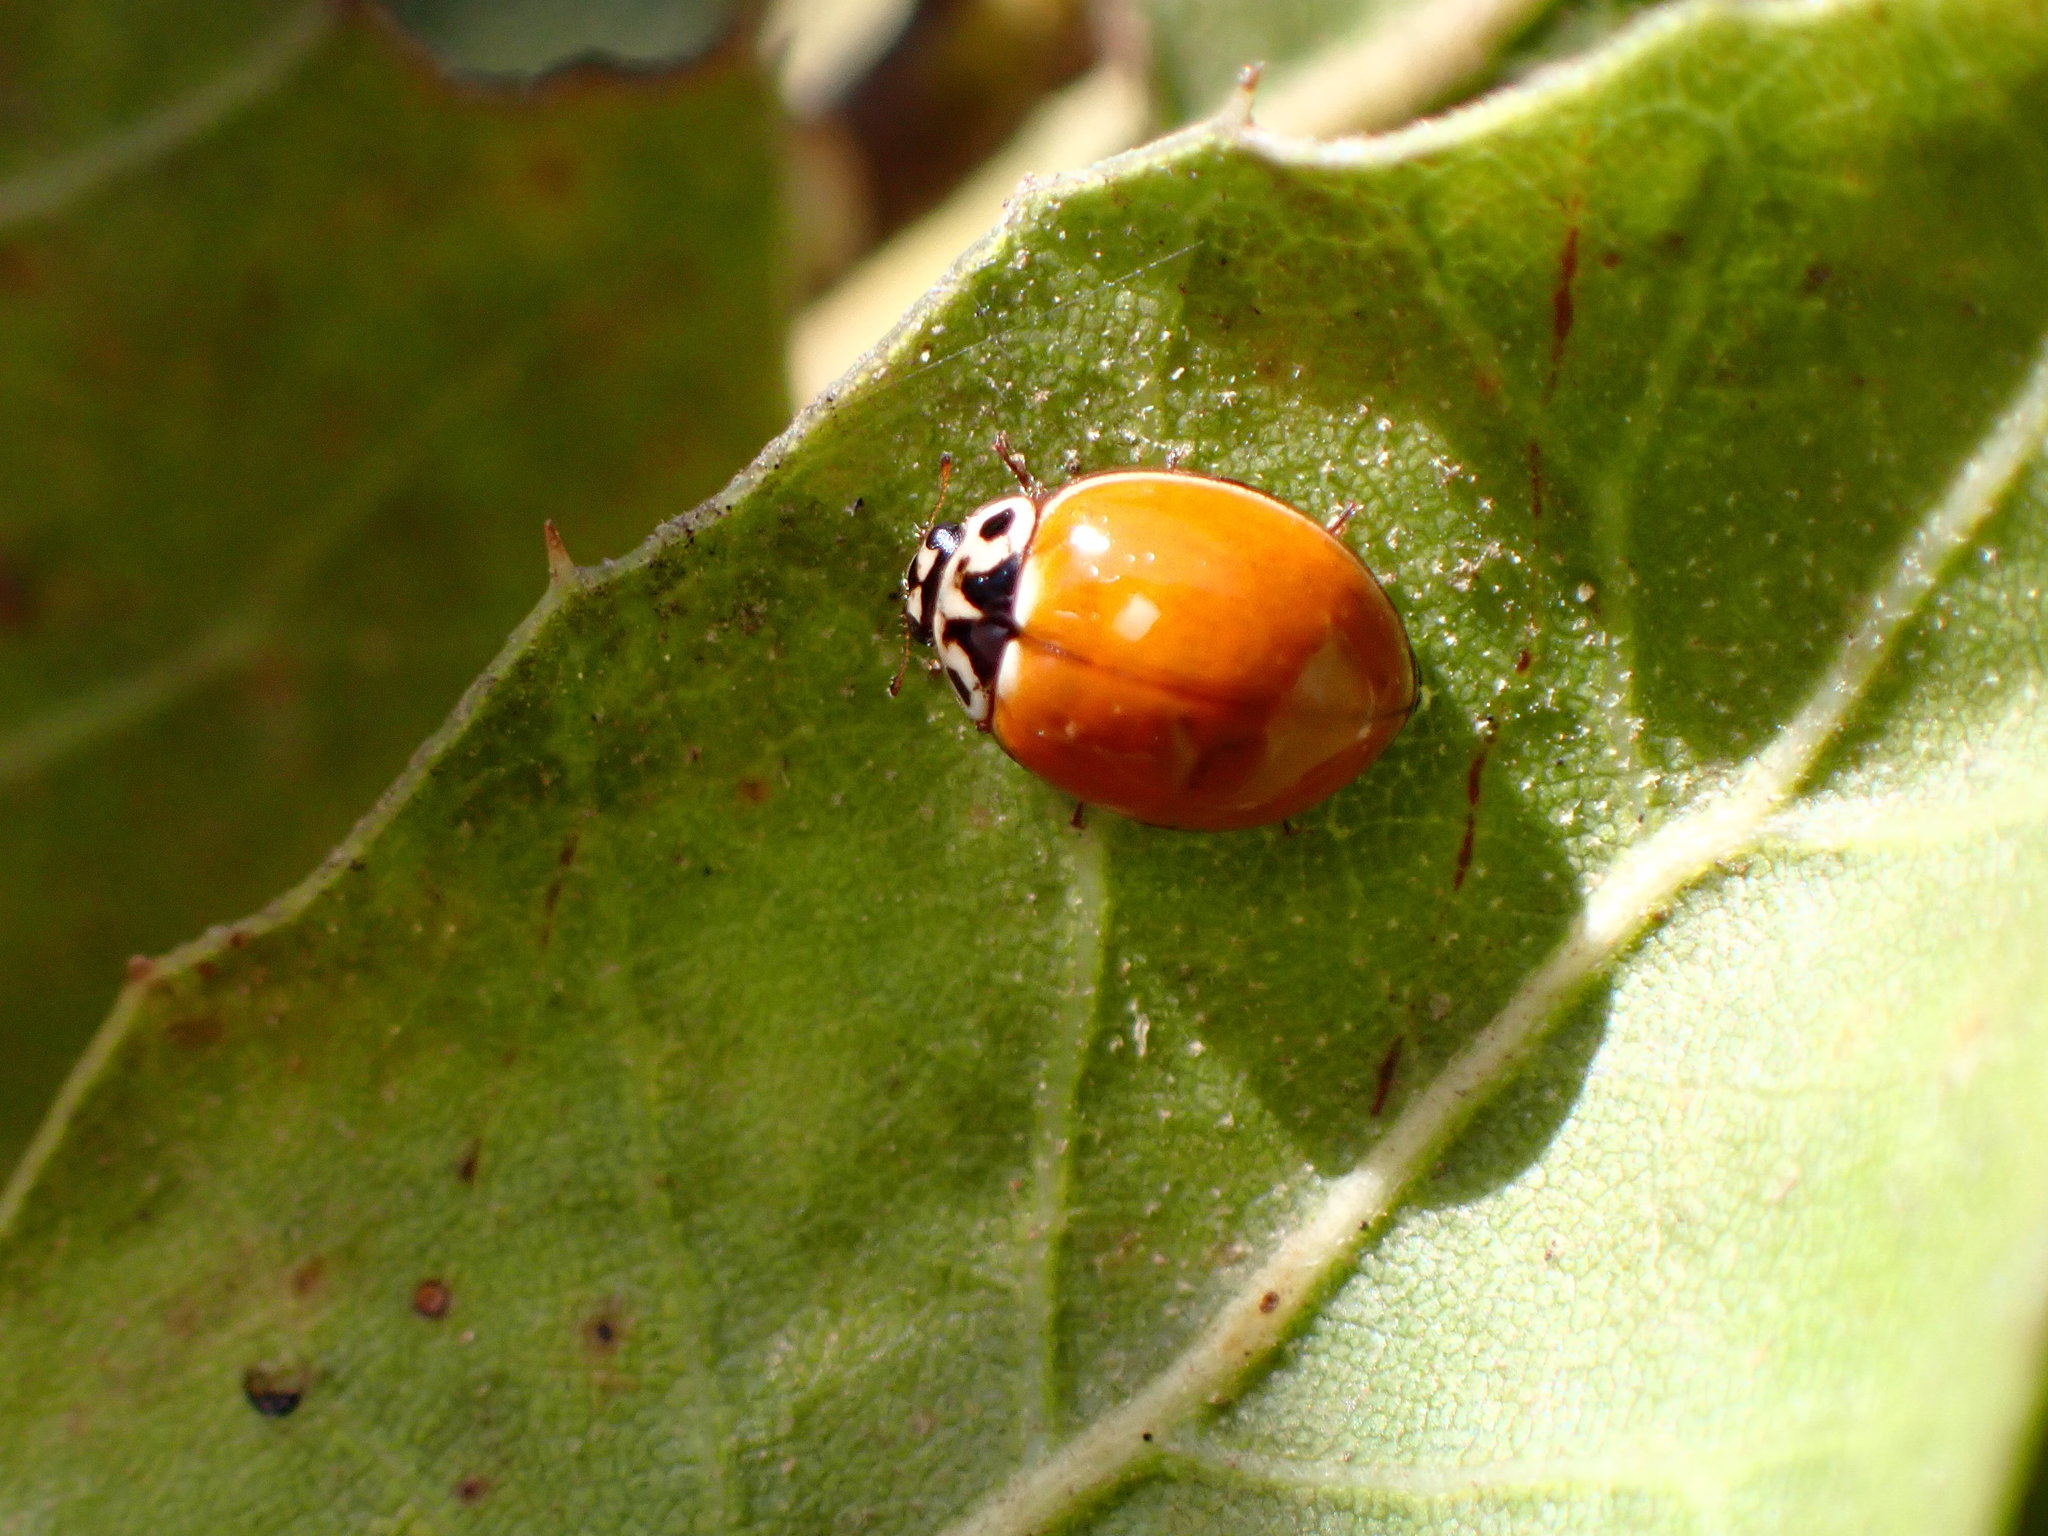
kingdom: Animalia
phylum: Arthropoda
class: Insecta
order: Coleoptera
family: Coccinellidae
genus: Cycloneda
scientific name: Cycloneda polita
